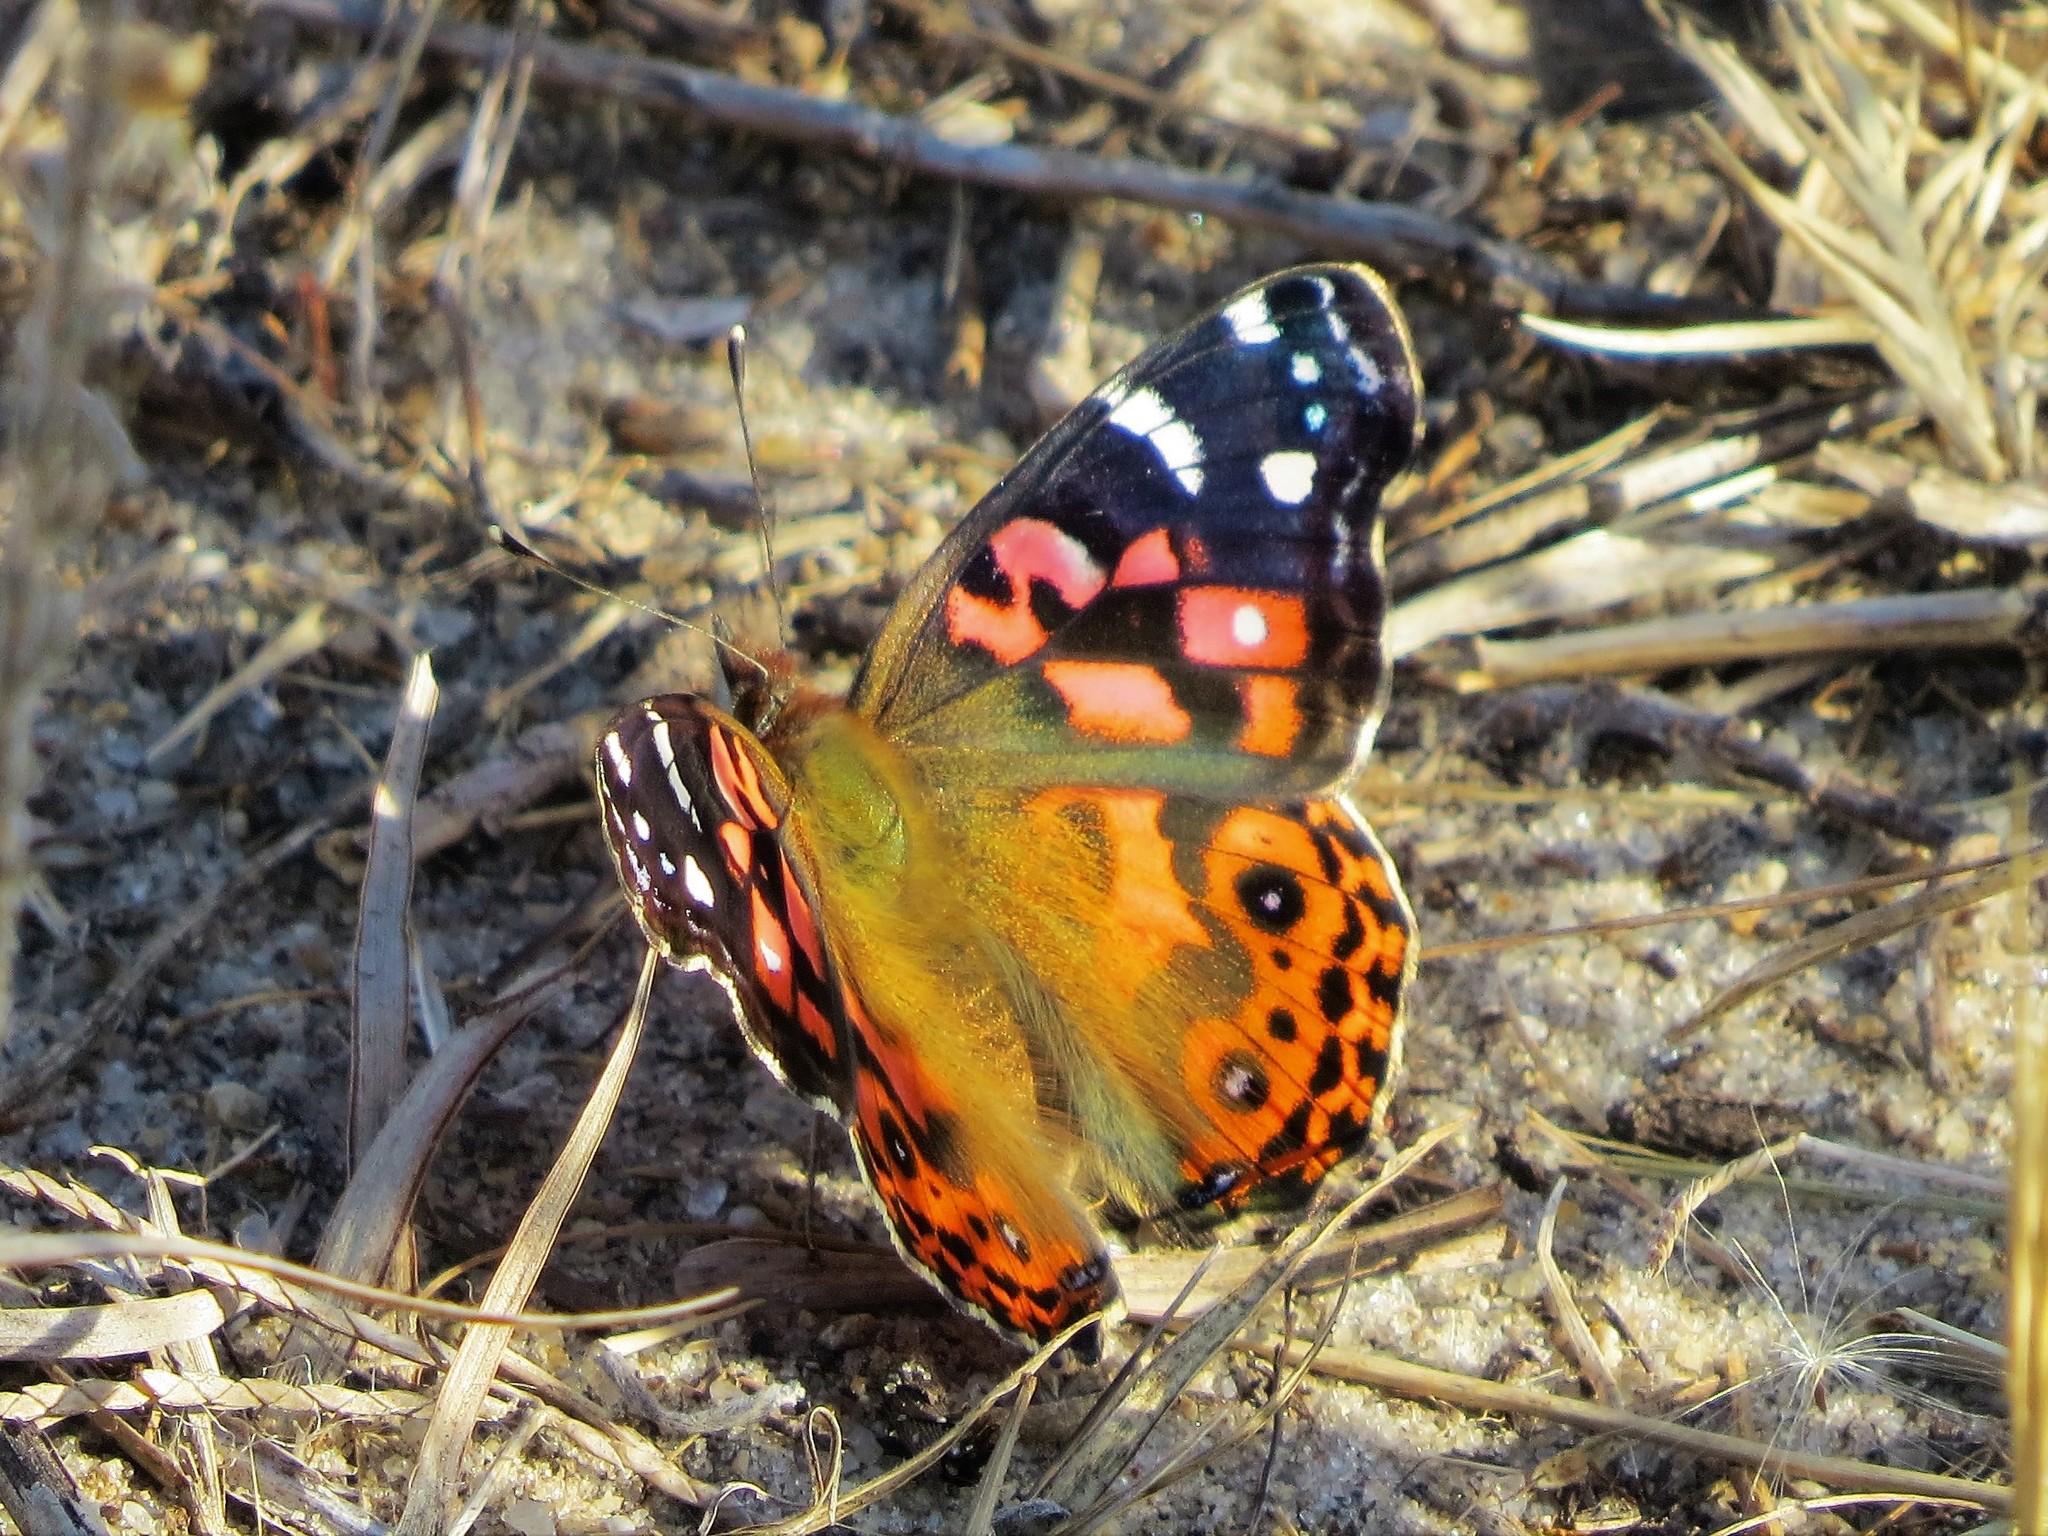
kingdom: Animalia
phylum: Arthropoda
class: Insecta
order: Lepidoptera
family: Nymphalidae
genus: Vanessa
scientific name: Vanessa braziliensis
